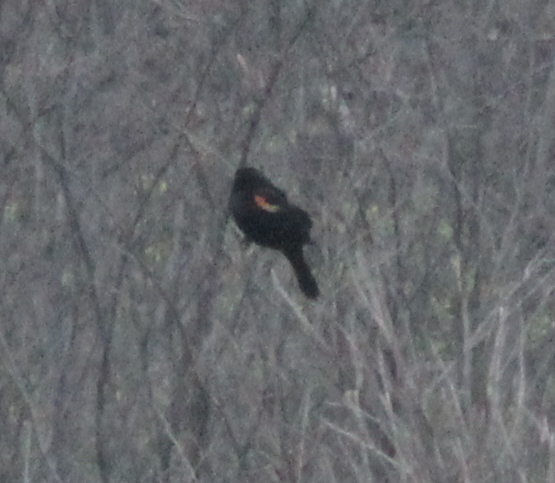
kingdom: Animalia
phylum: Chordata
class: Aves
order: Passeriformes
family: Icteridae
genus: Agelaius
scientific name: Agelaius phoeniceus
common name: Red-winged blackbird
